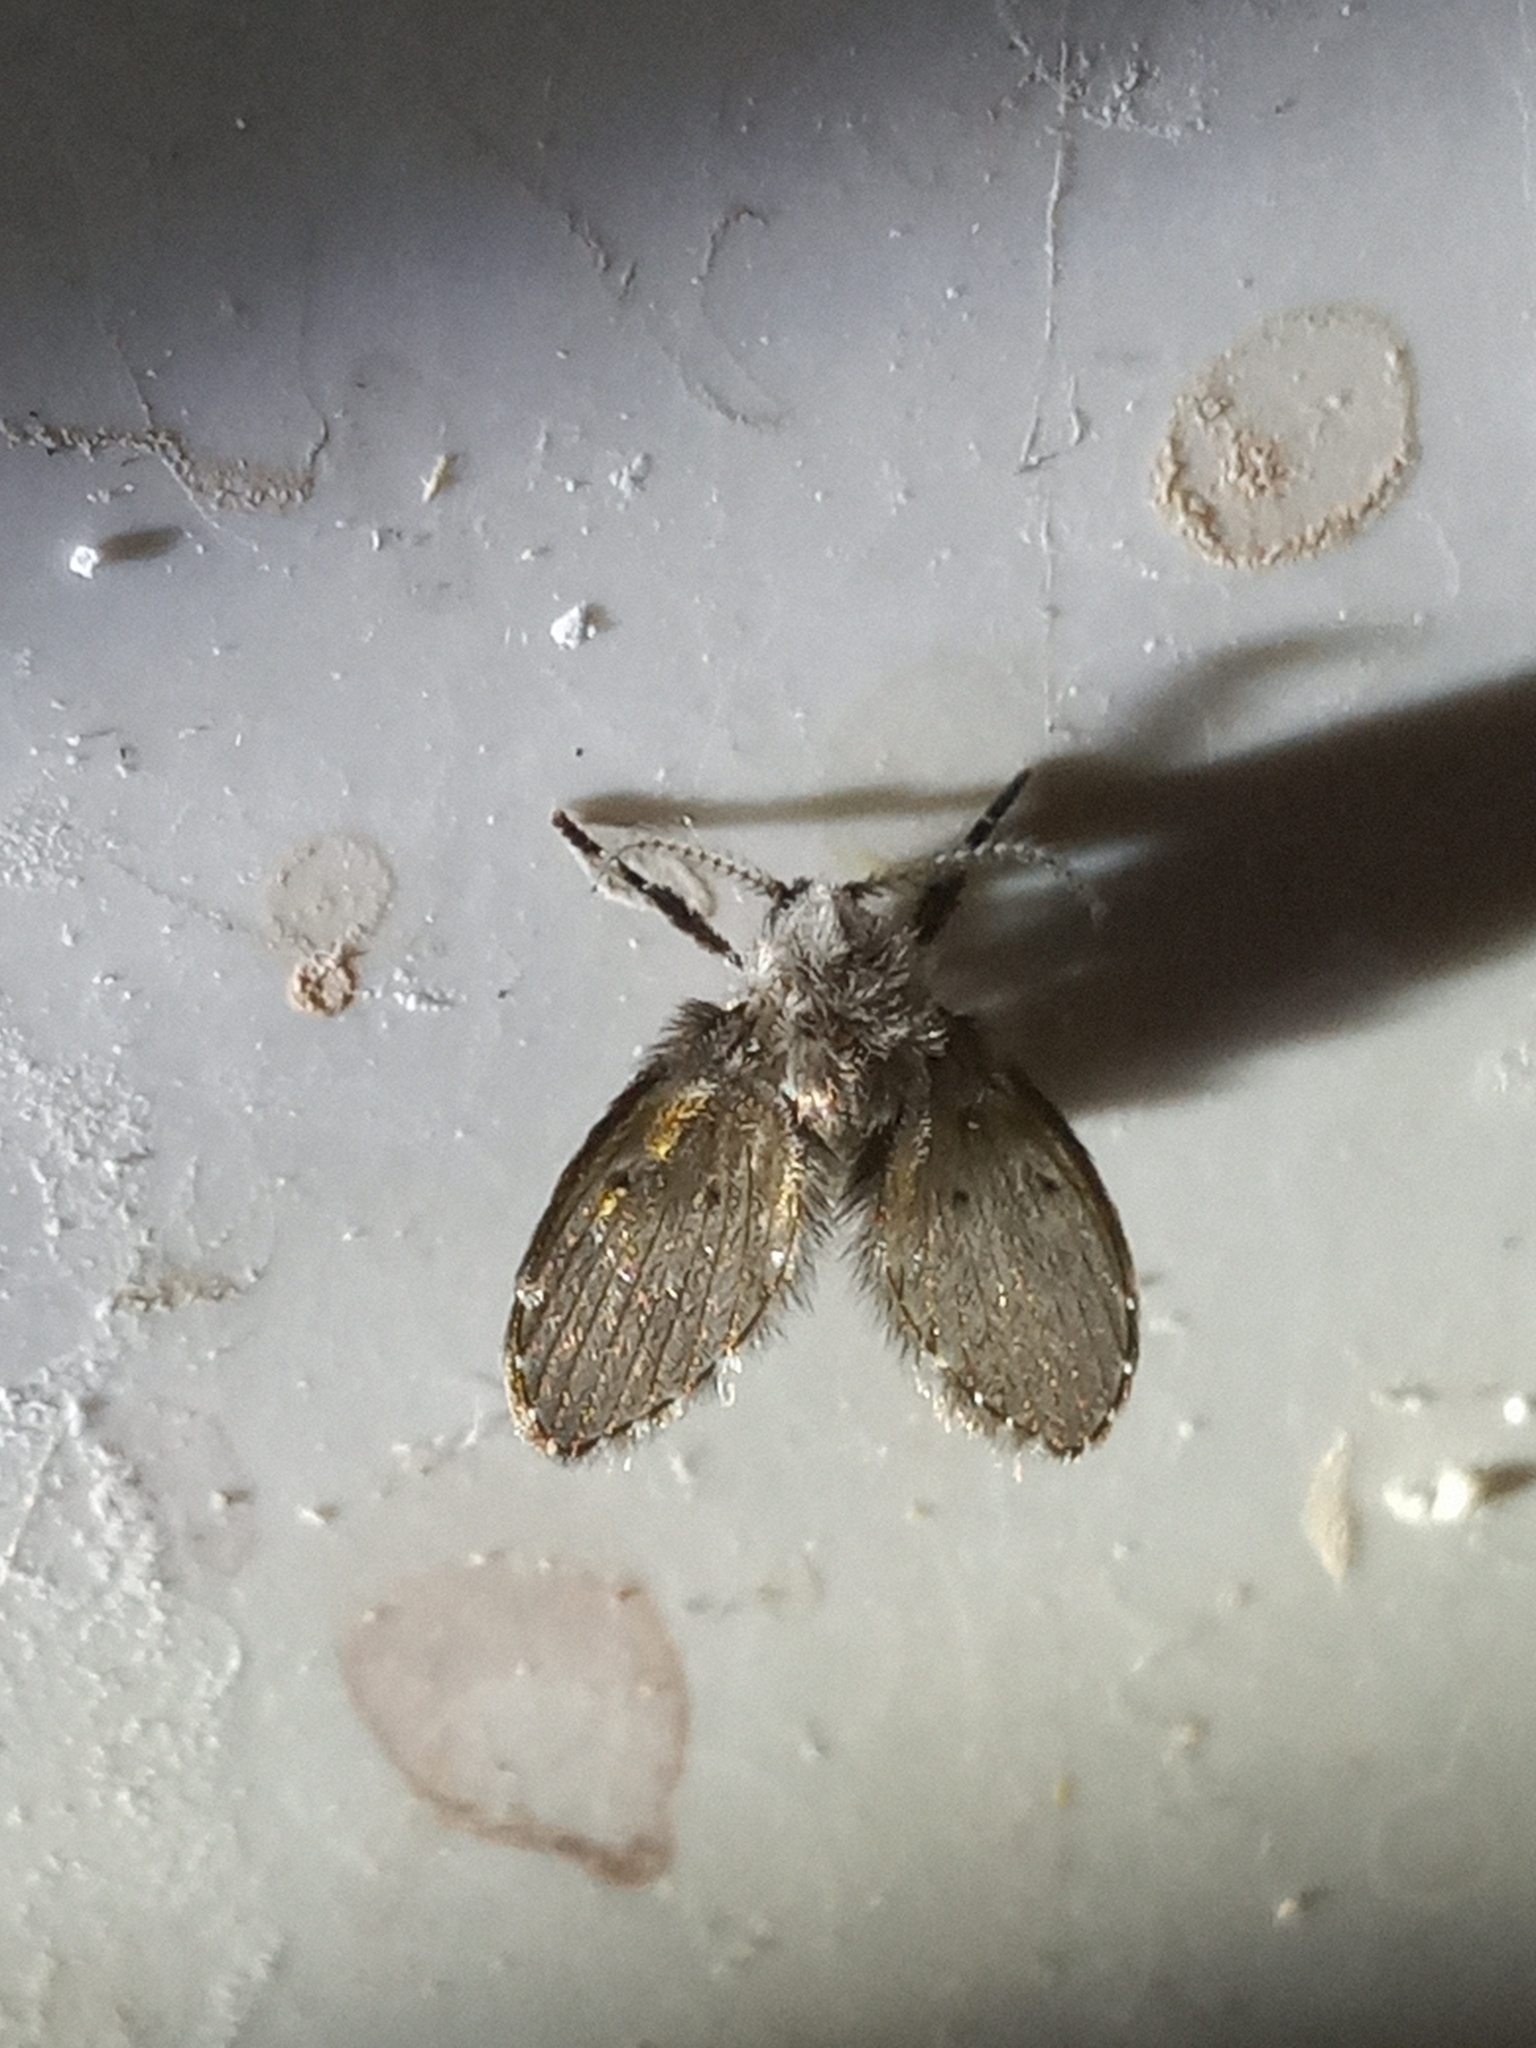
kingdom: Animalia
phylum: Arthropoda
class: Insecta
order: Diptera
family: Psychodidae
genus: Clogmia
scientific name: Clogmia albipunctatus
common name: White-spotted moth fly
